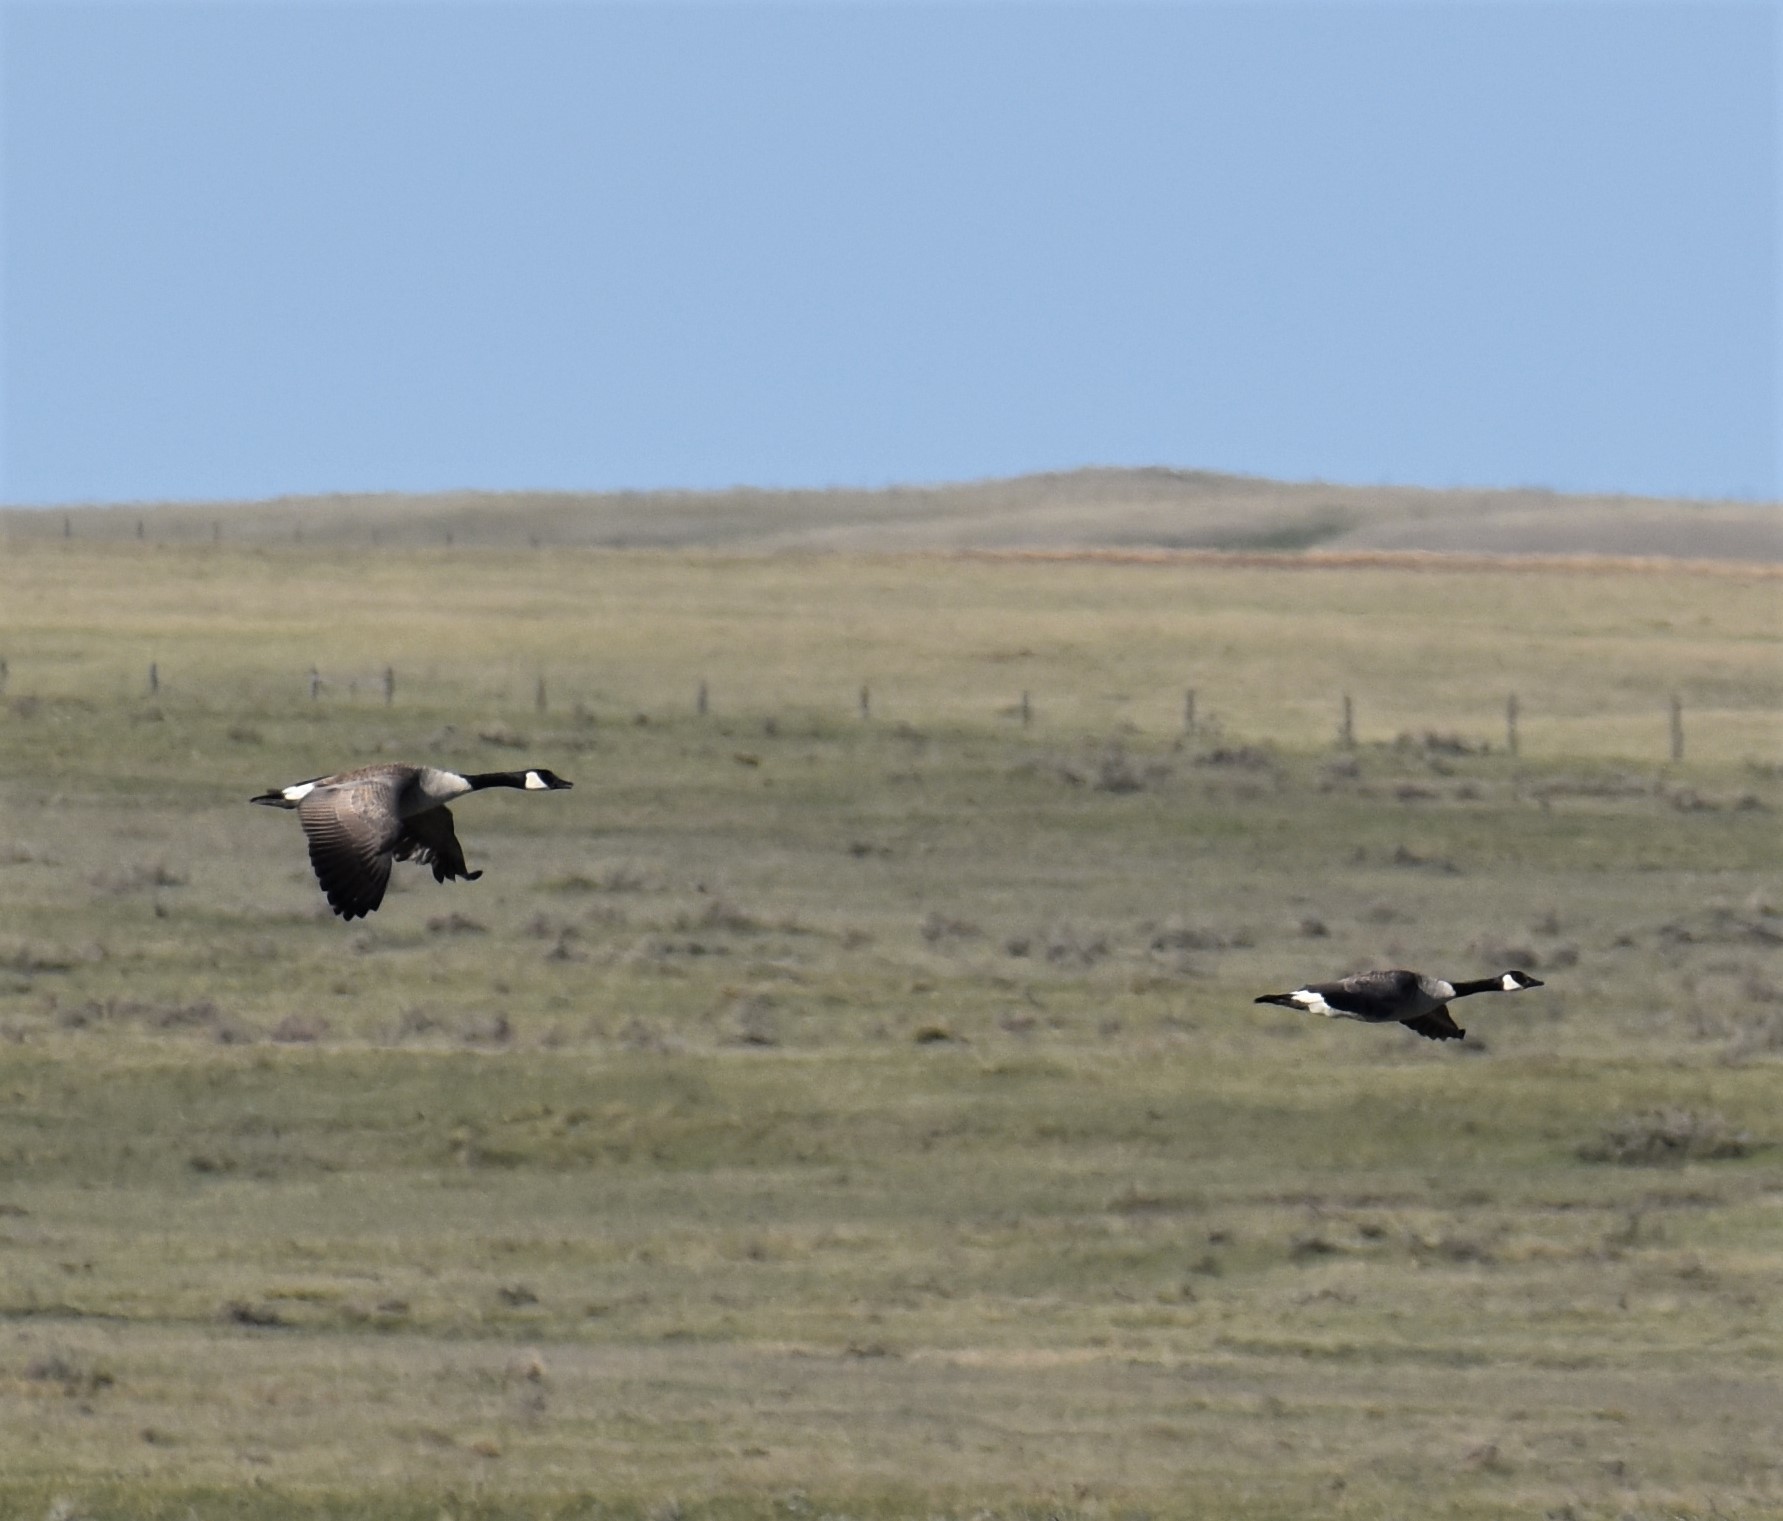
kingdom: Animalia
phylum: Chordata
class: Aves
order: Anseriformes
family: Anatidae
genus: Branta
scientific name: Branta canadensis
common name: Canada goose
